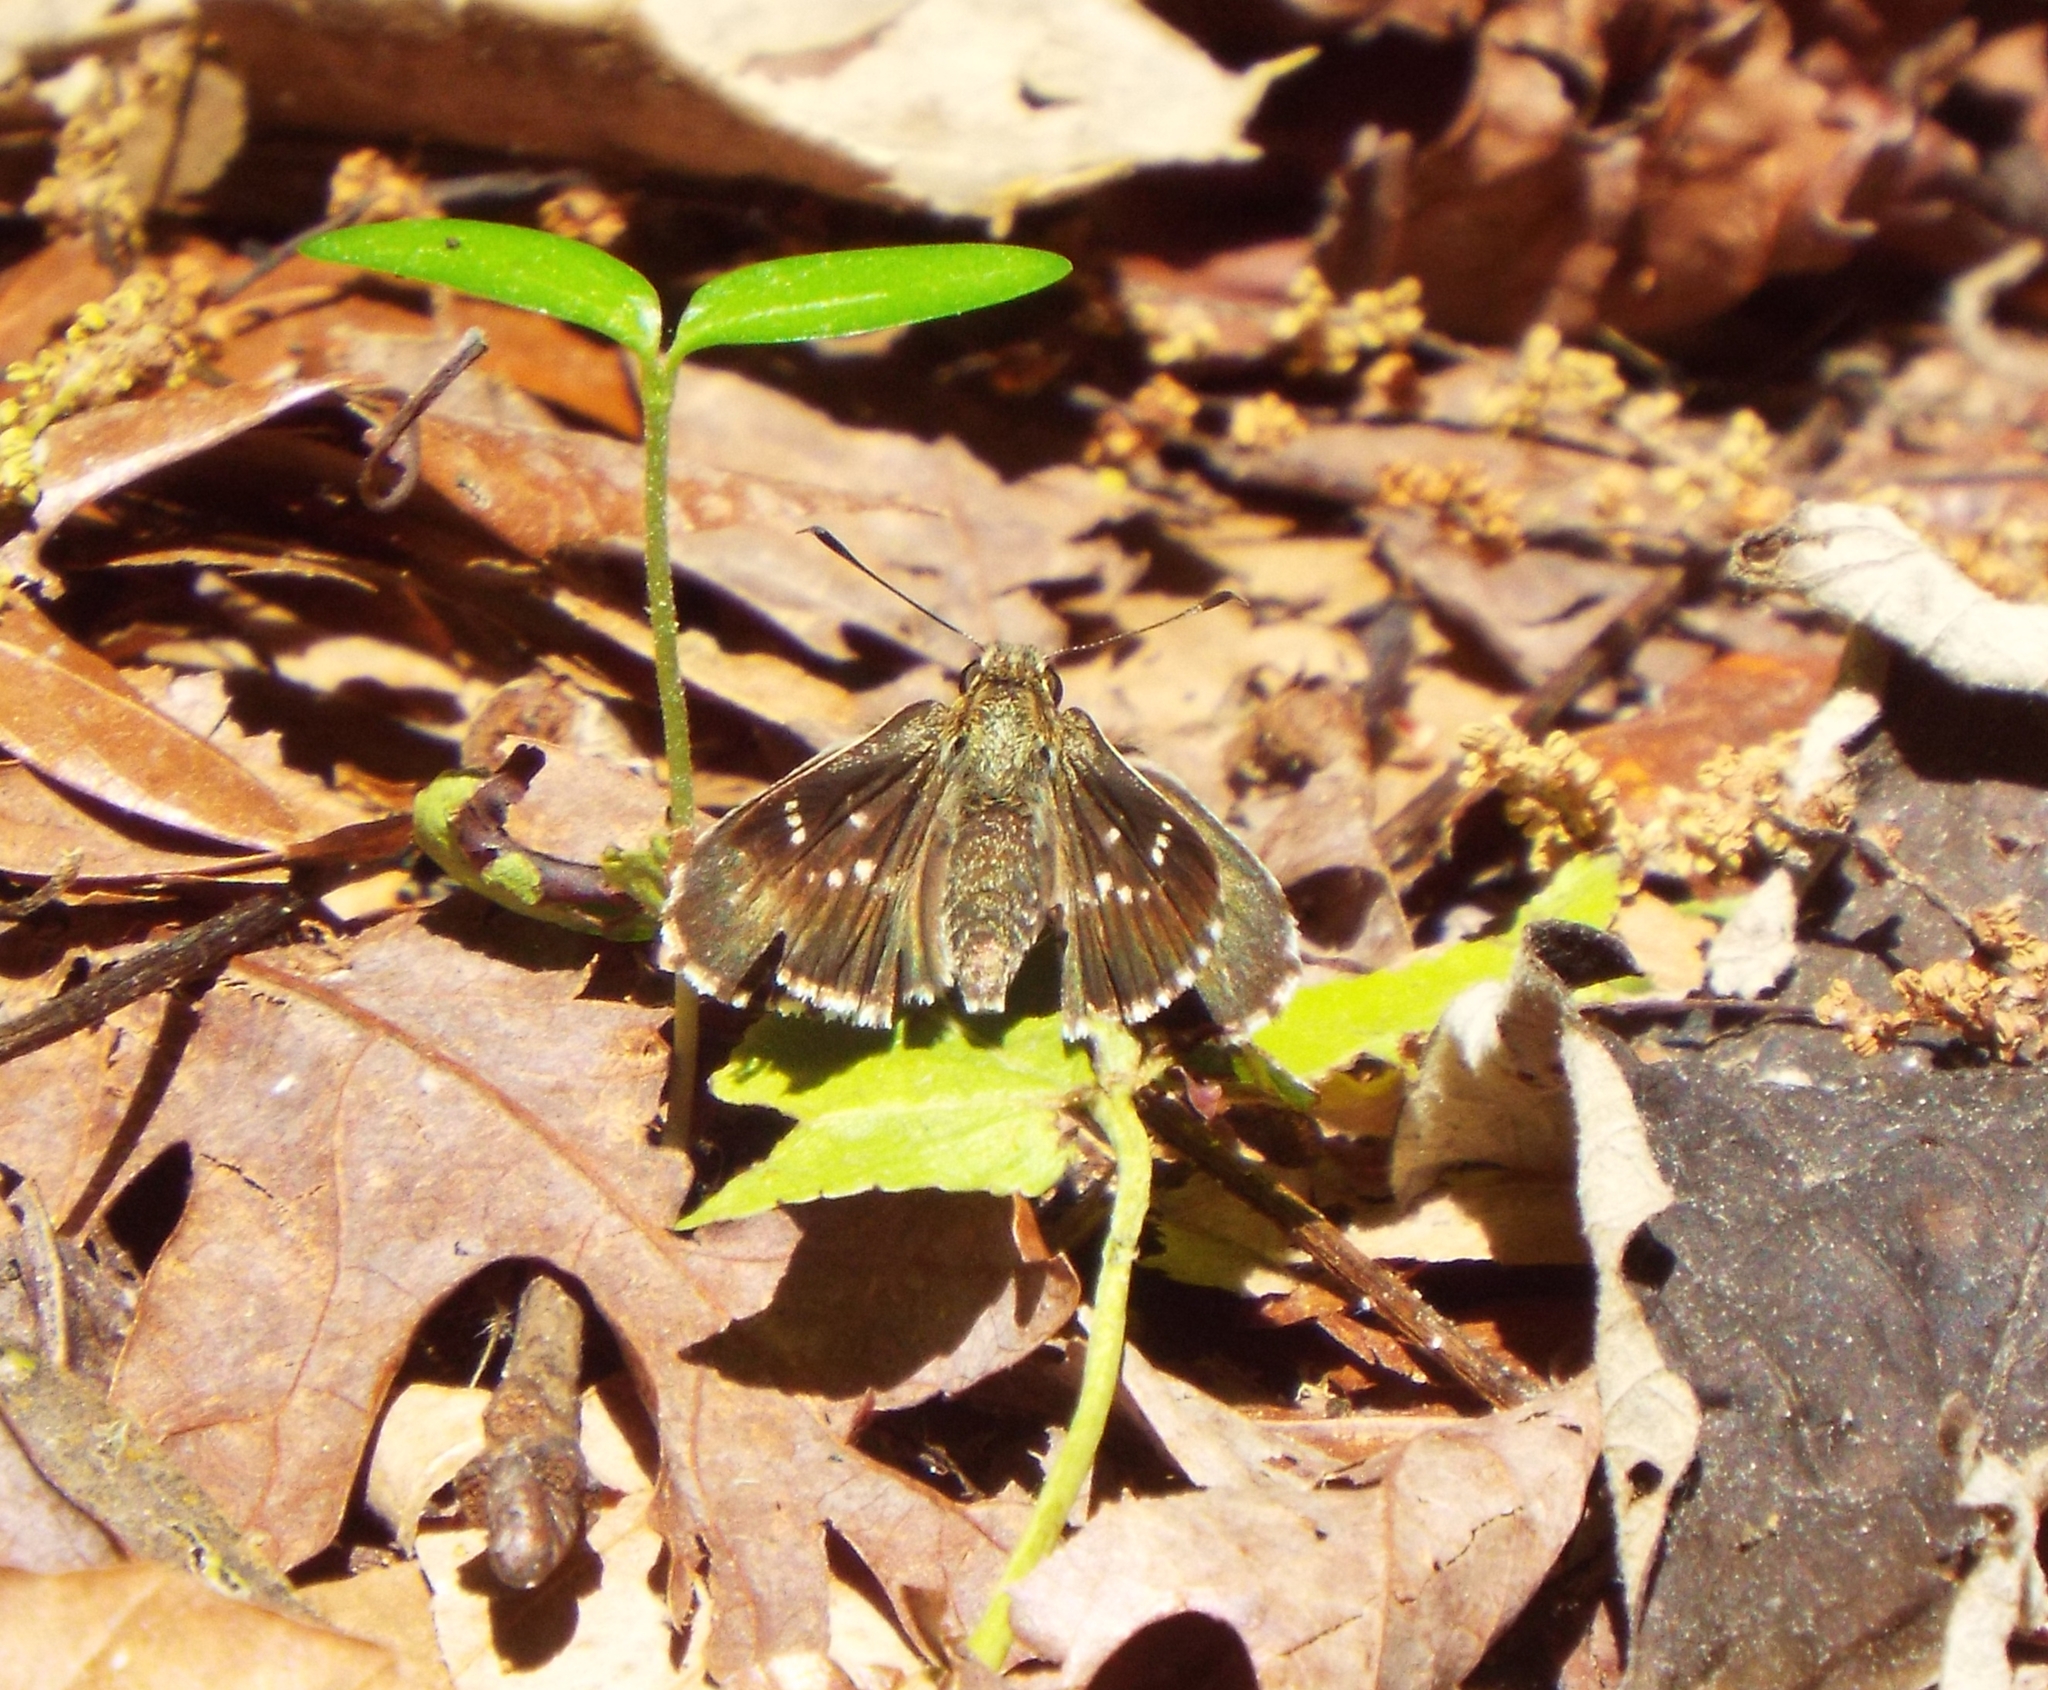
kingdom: Animalia
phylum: Arthropoda
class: Insecta
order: Lepidoptera
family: Hesperiidae
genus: Mastor
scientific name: Mastor aesculapius
